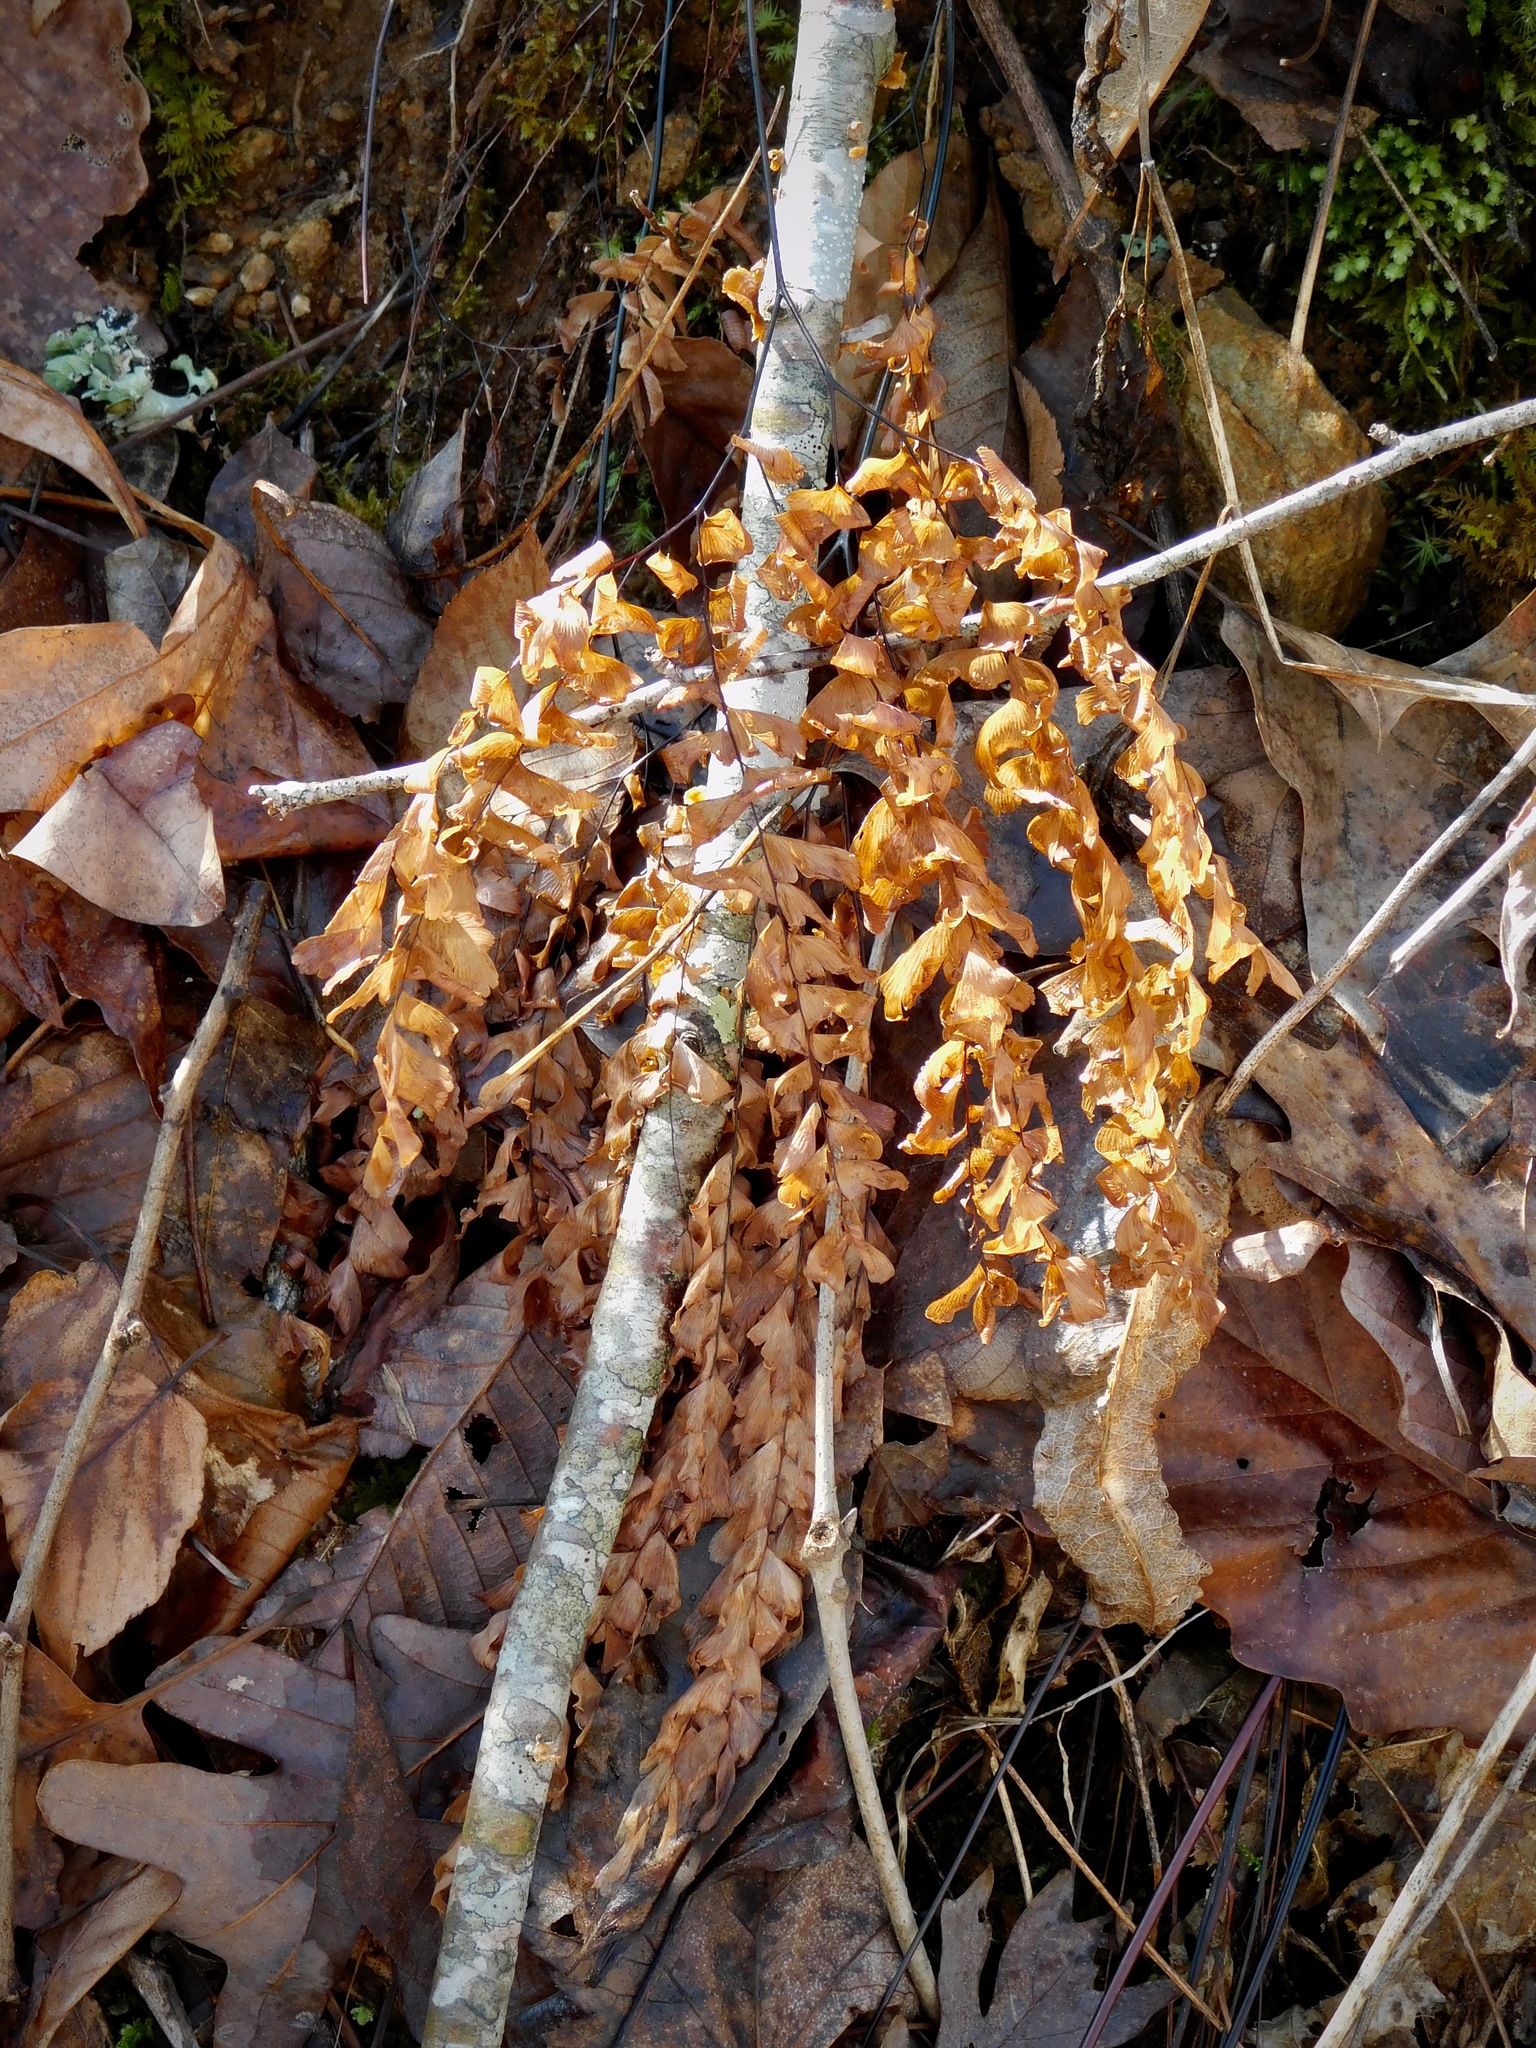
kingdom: Plantae
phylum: Tracheophyta
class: Polypodiopsida
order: Polypodiales
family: Pteridaceae
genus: Adiantum
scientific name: Adiantum pedatum
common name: Five-finger fern
